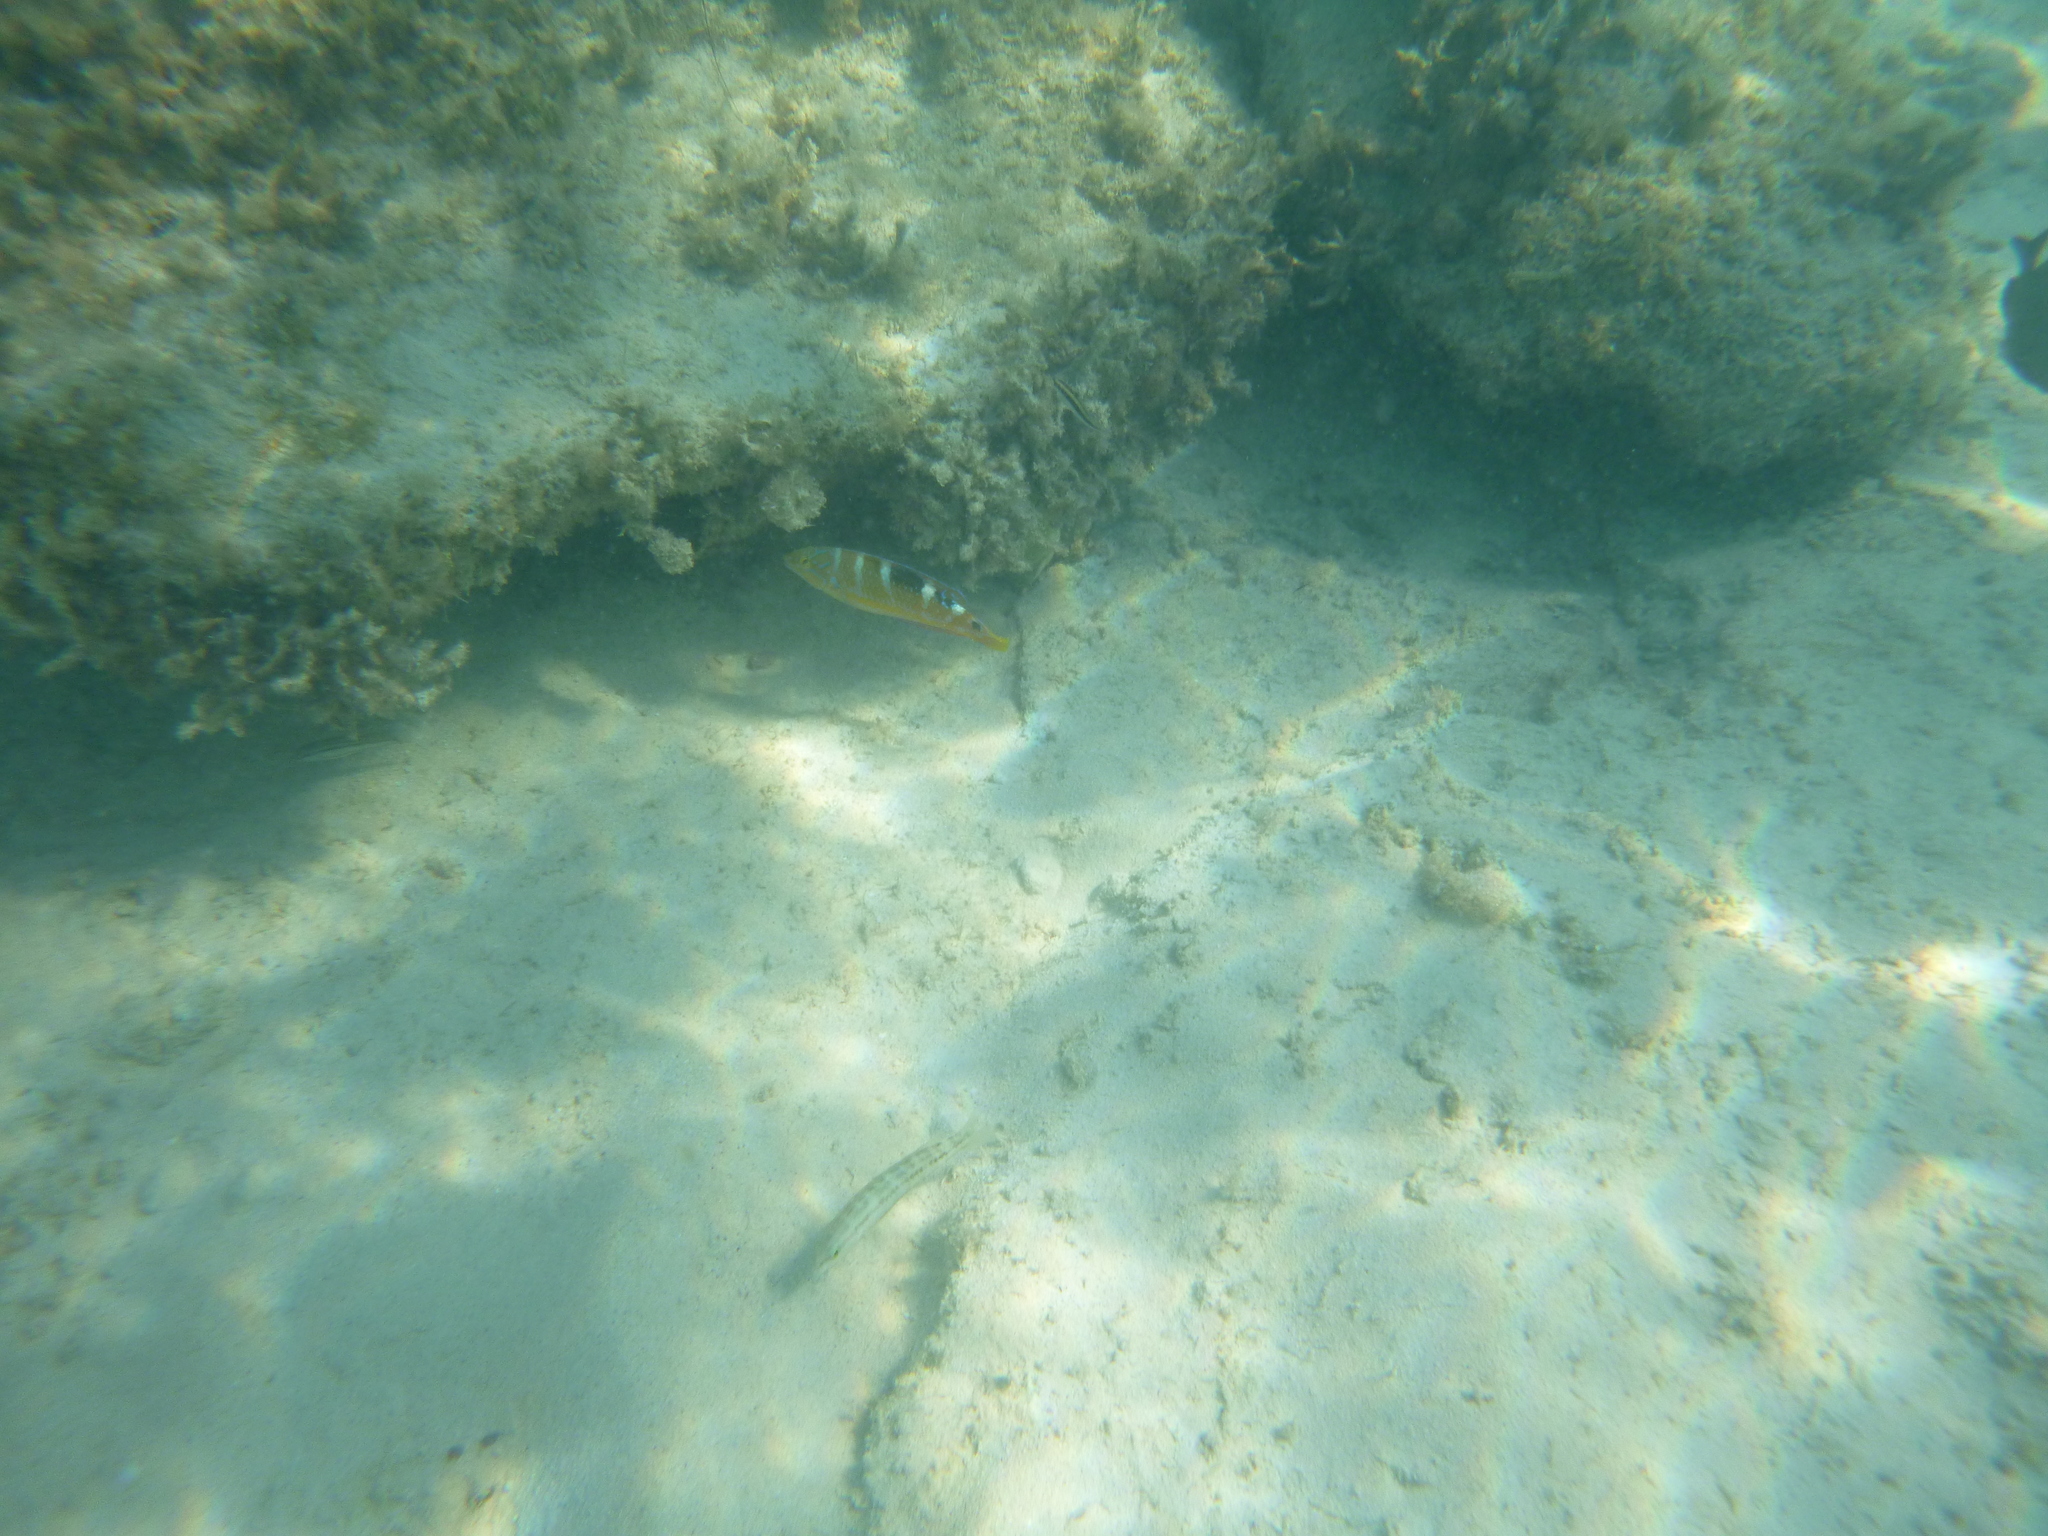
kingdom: Animalia
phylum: Chordata
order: Perciformes
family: Labridae
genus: Halichoeres
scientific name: Halichoeres radiatus
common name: Puddingwife
